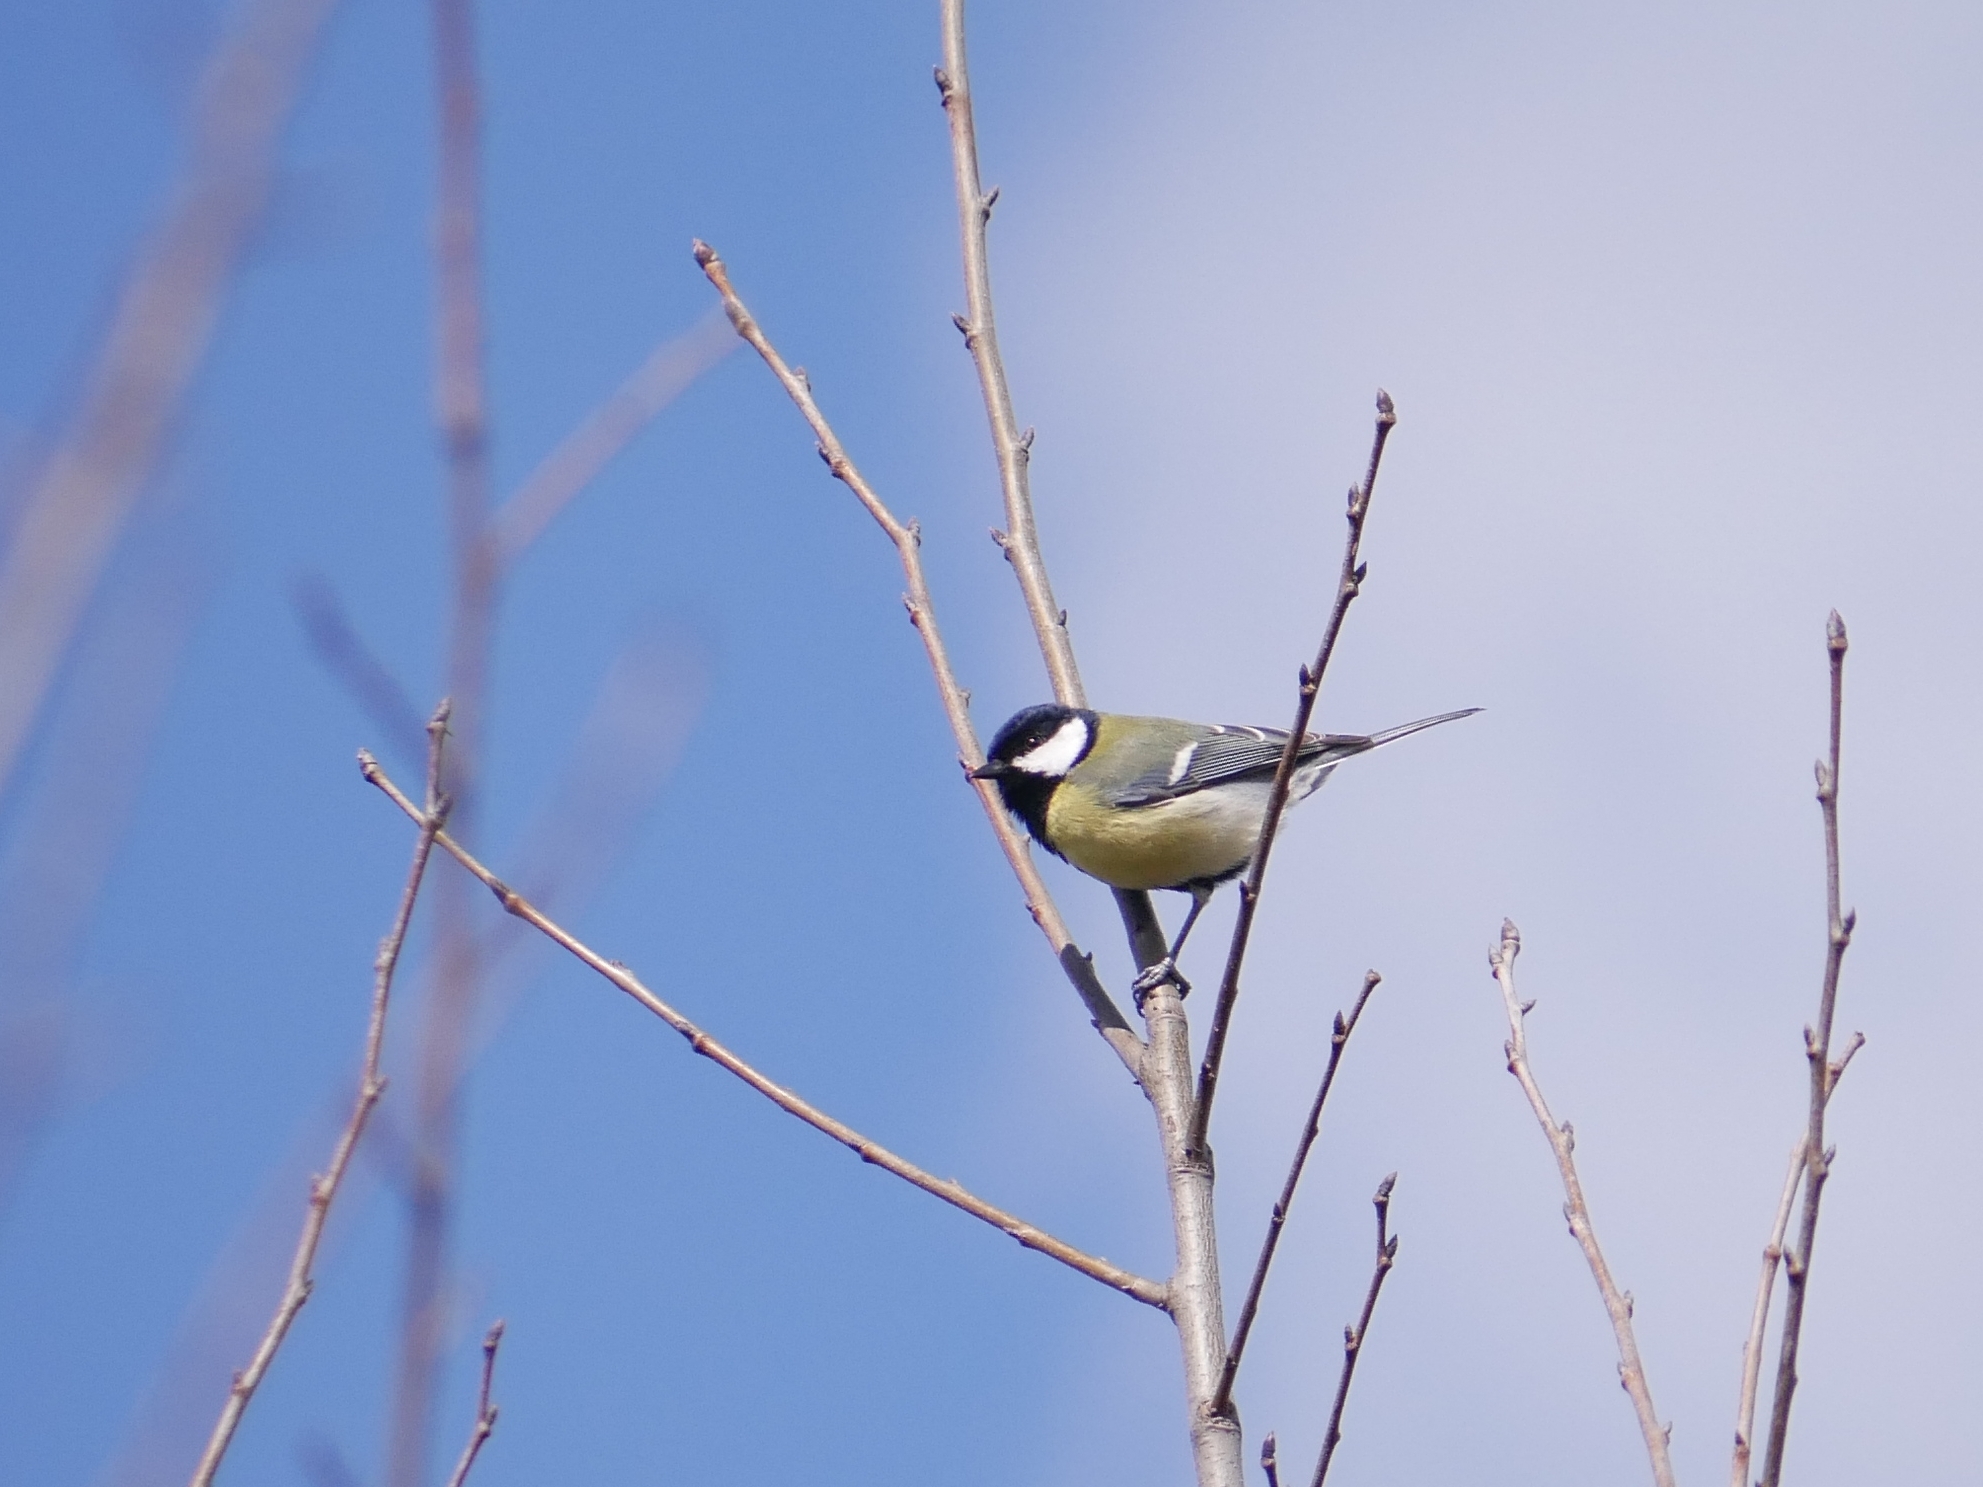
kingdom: Animalia
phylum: Chordata
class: Aves
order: Passeriformes
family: Paridae
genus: Parus
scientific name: Parus major
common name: Great tit
